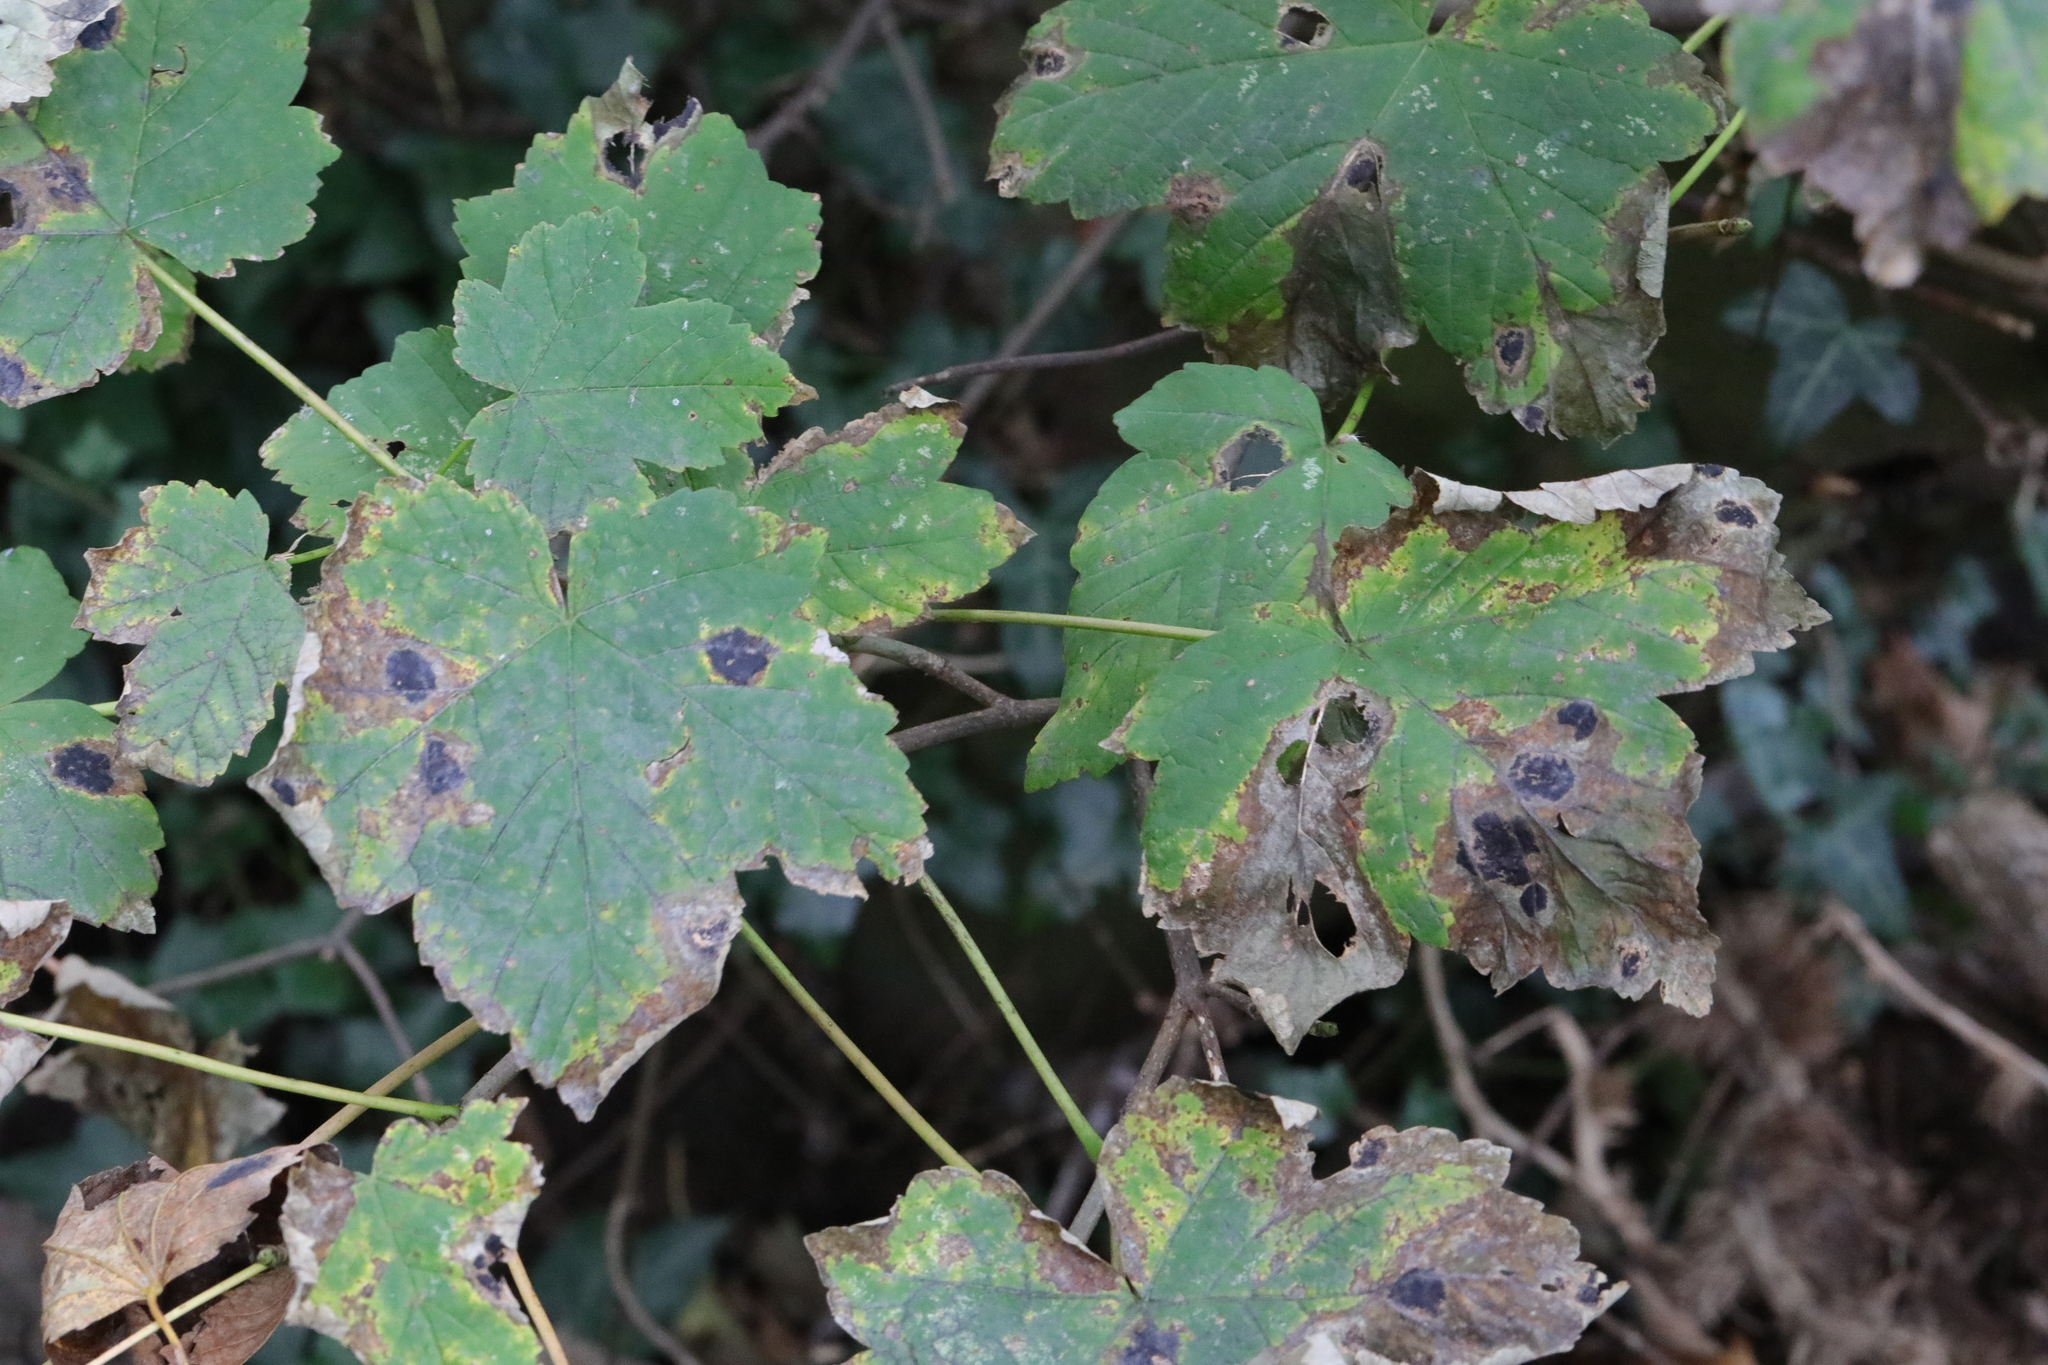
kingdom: Plantae
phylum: Tracheophyta
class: Magnoliopsida
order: Sapindales
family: Sapindaceae
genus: Acer
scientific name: Acer pseudoplatanus
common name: Sycamore
